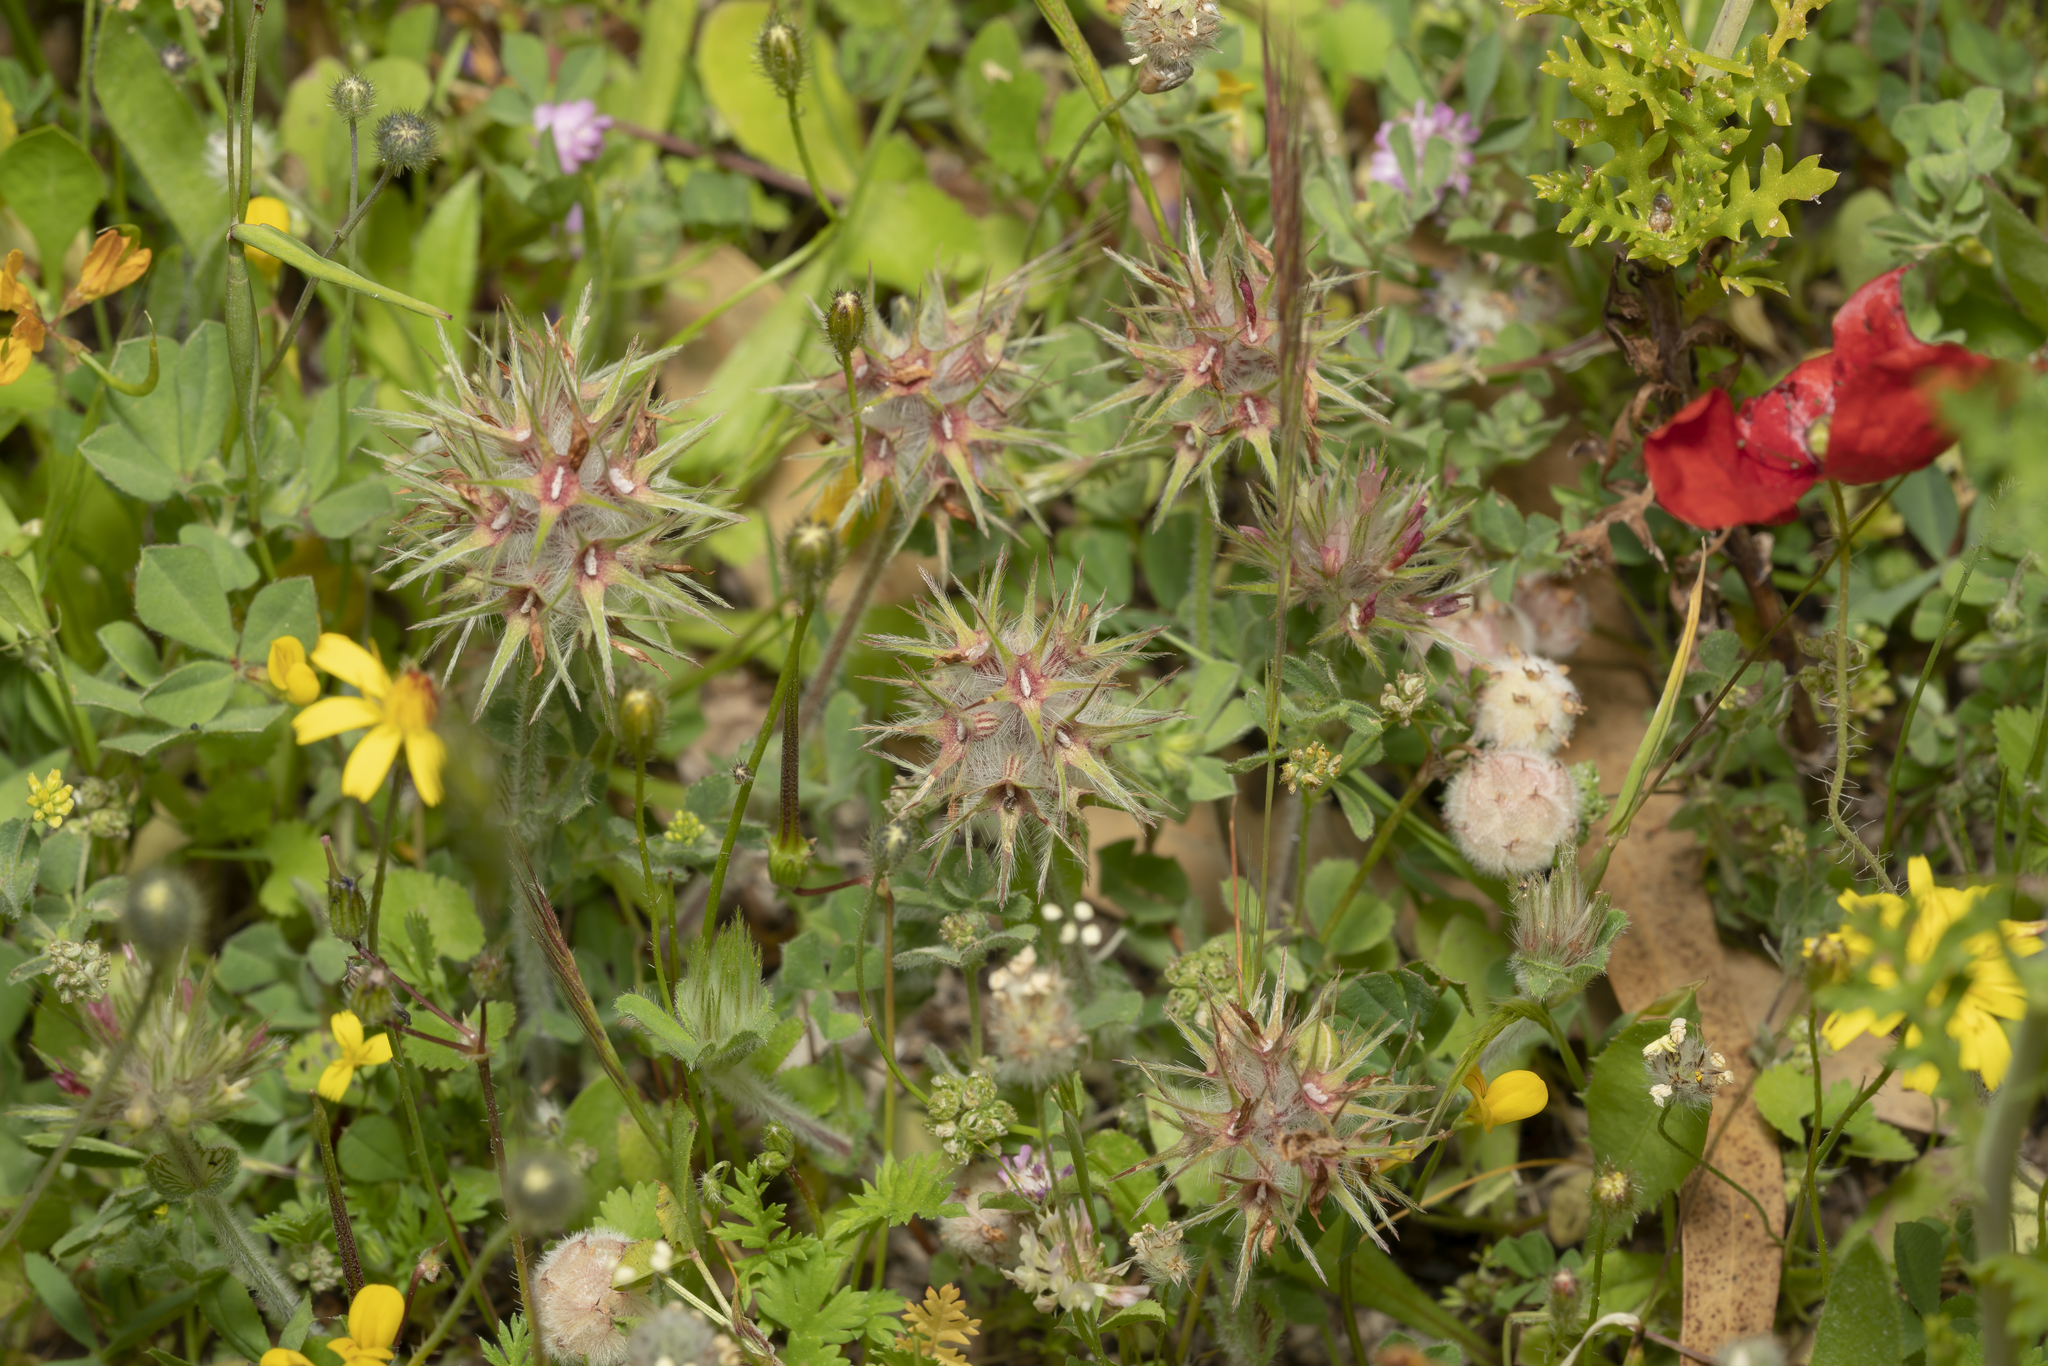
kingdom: Plantae
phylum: Tracheophyta
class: Magnoliopsida
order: Fabales
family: Fabaceae
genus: Trifolium
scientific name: Trifolium stellatum
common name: Starry clover
